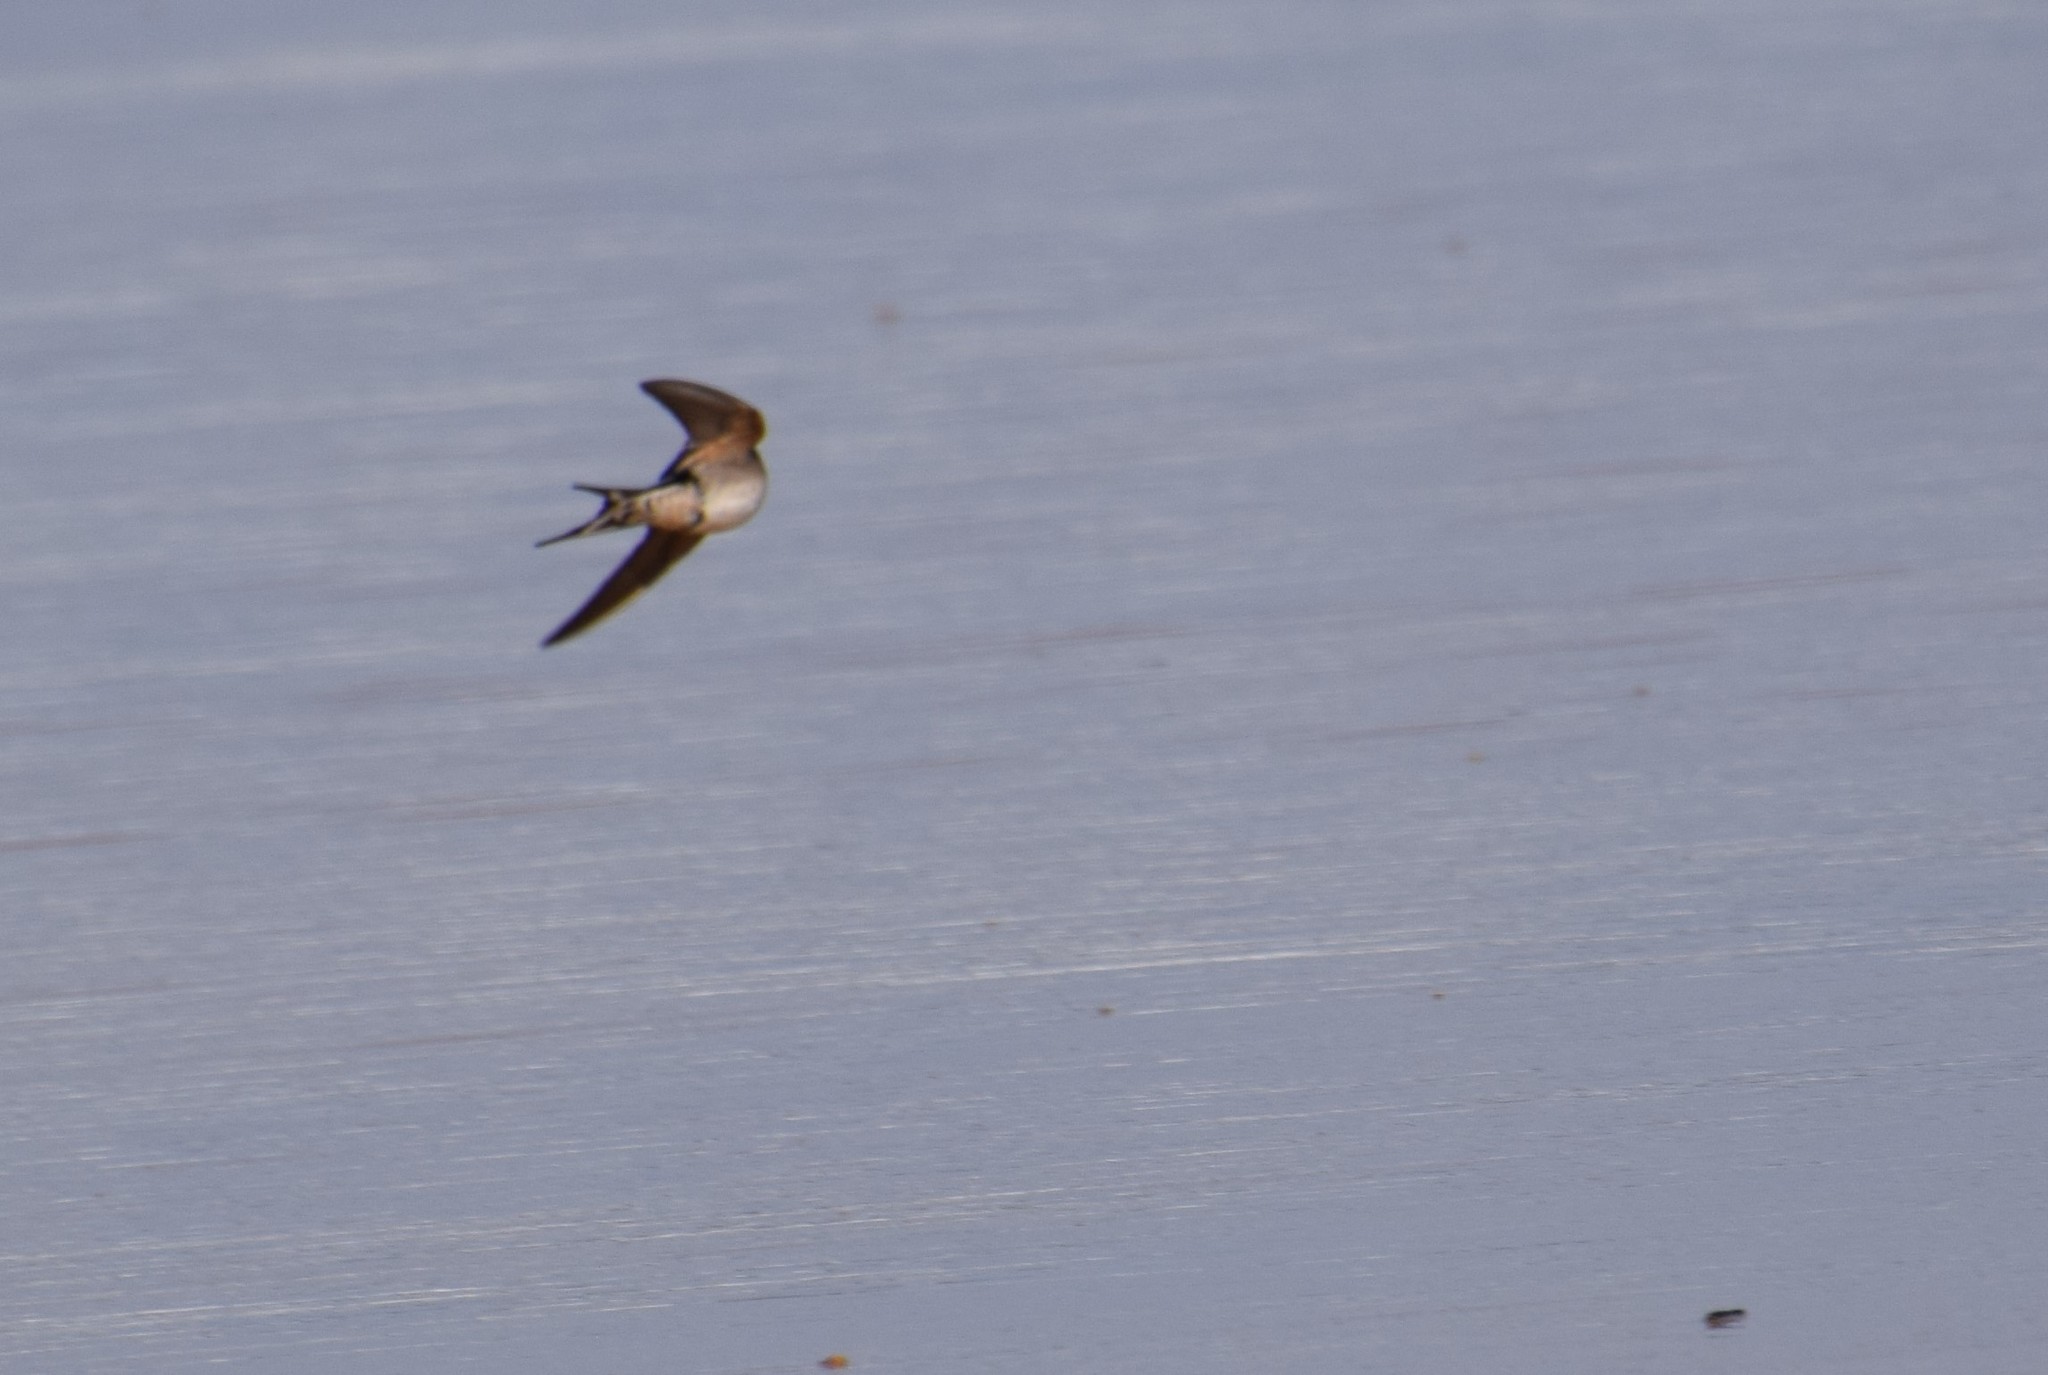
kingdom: Animalia
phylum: Chordata
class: Aves
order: Passeriformes
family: Hirundinidae
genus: Hirundo
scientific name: Hirundo neoxena
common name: Welcome swallow
